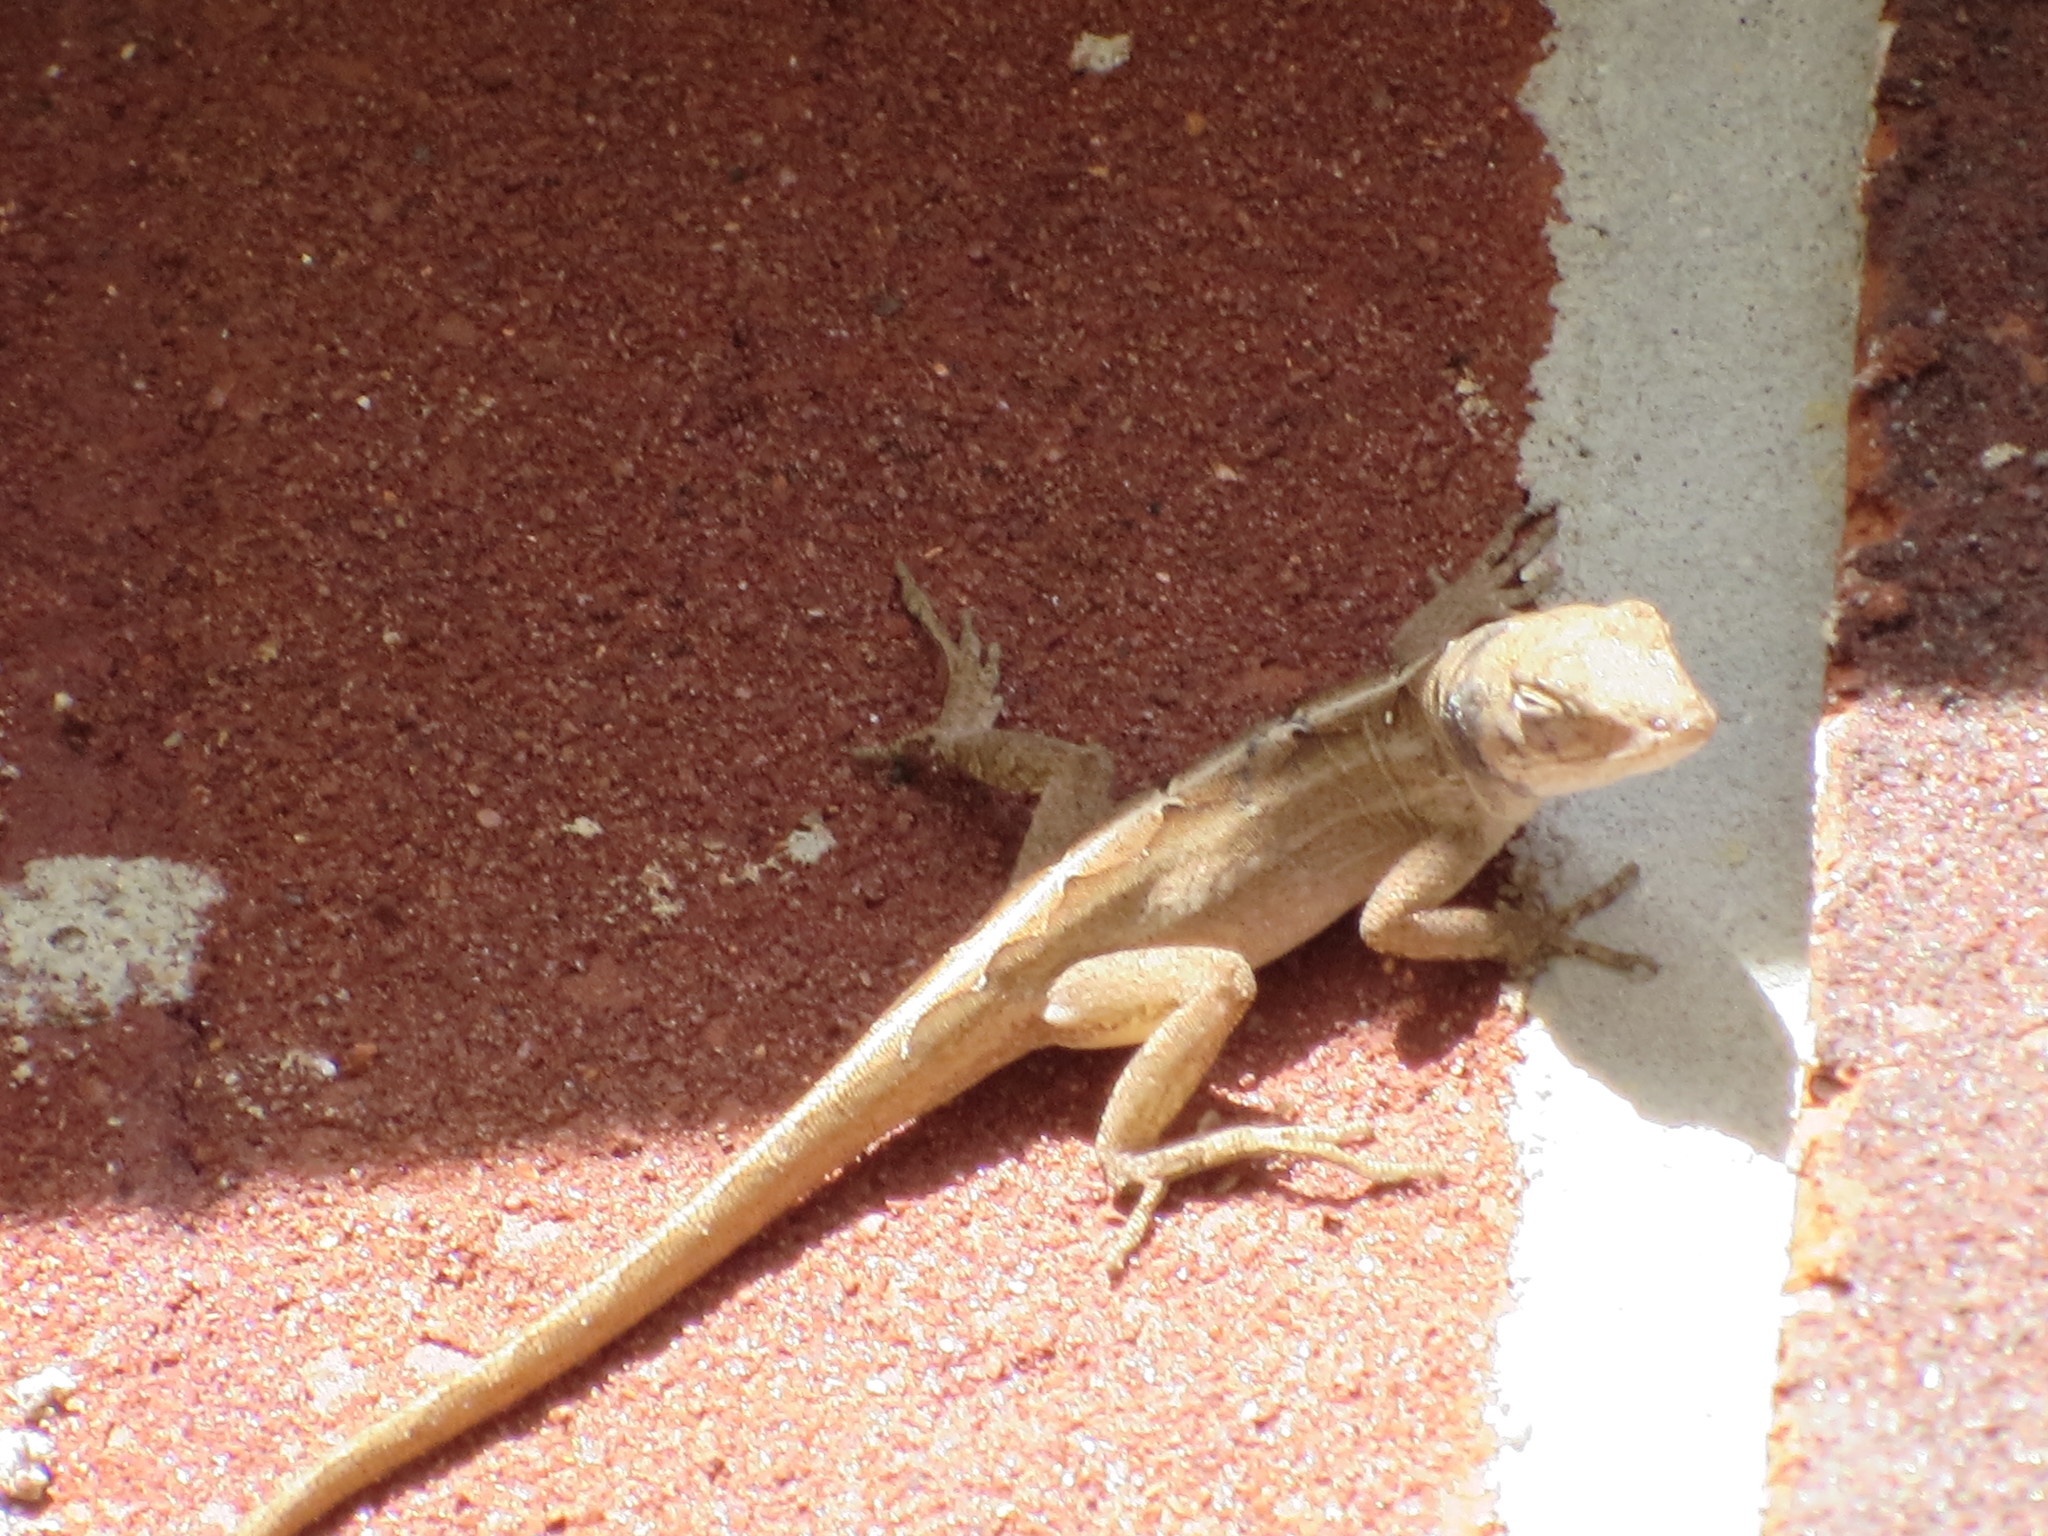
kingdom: Animalia
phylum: Chordata
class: Squamata
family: Dactyloidae
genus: Anolis
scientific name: Anolis sagrei
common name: Brown anole
